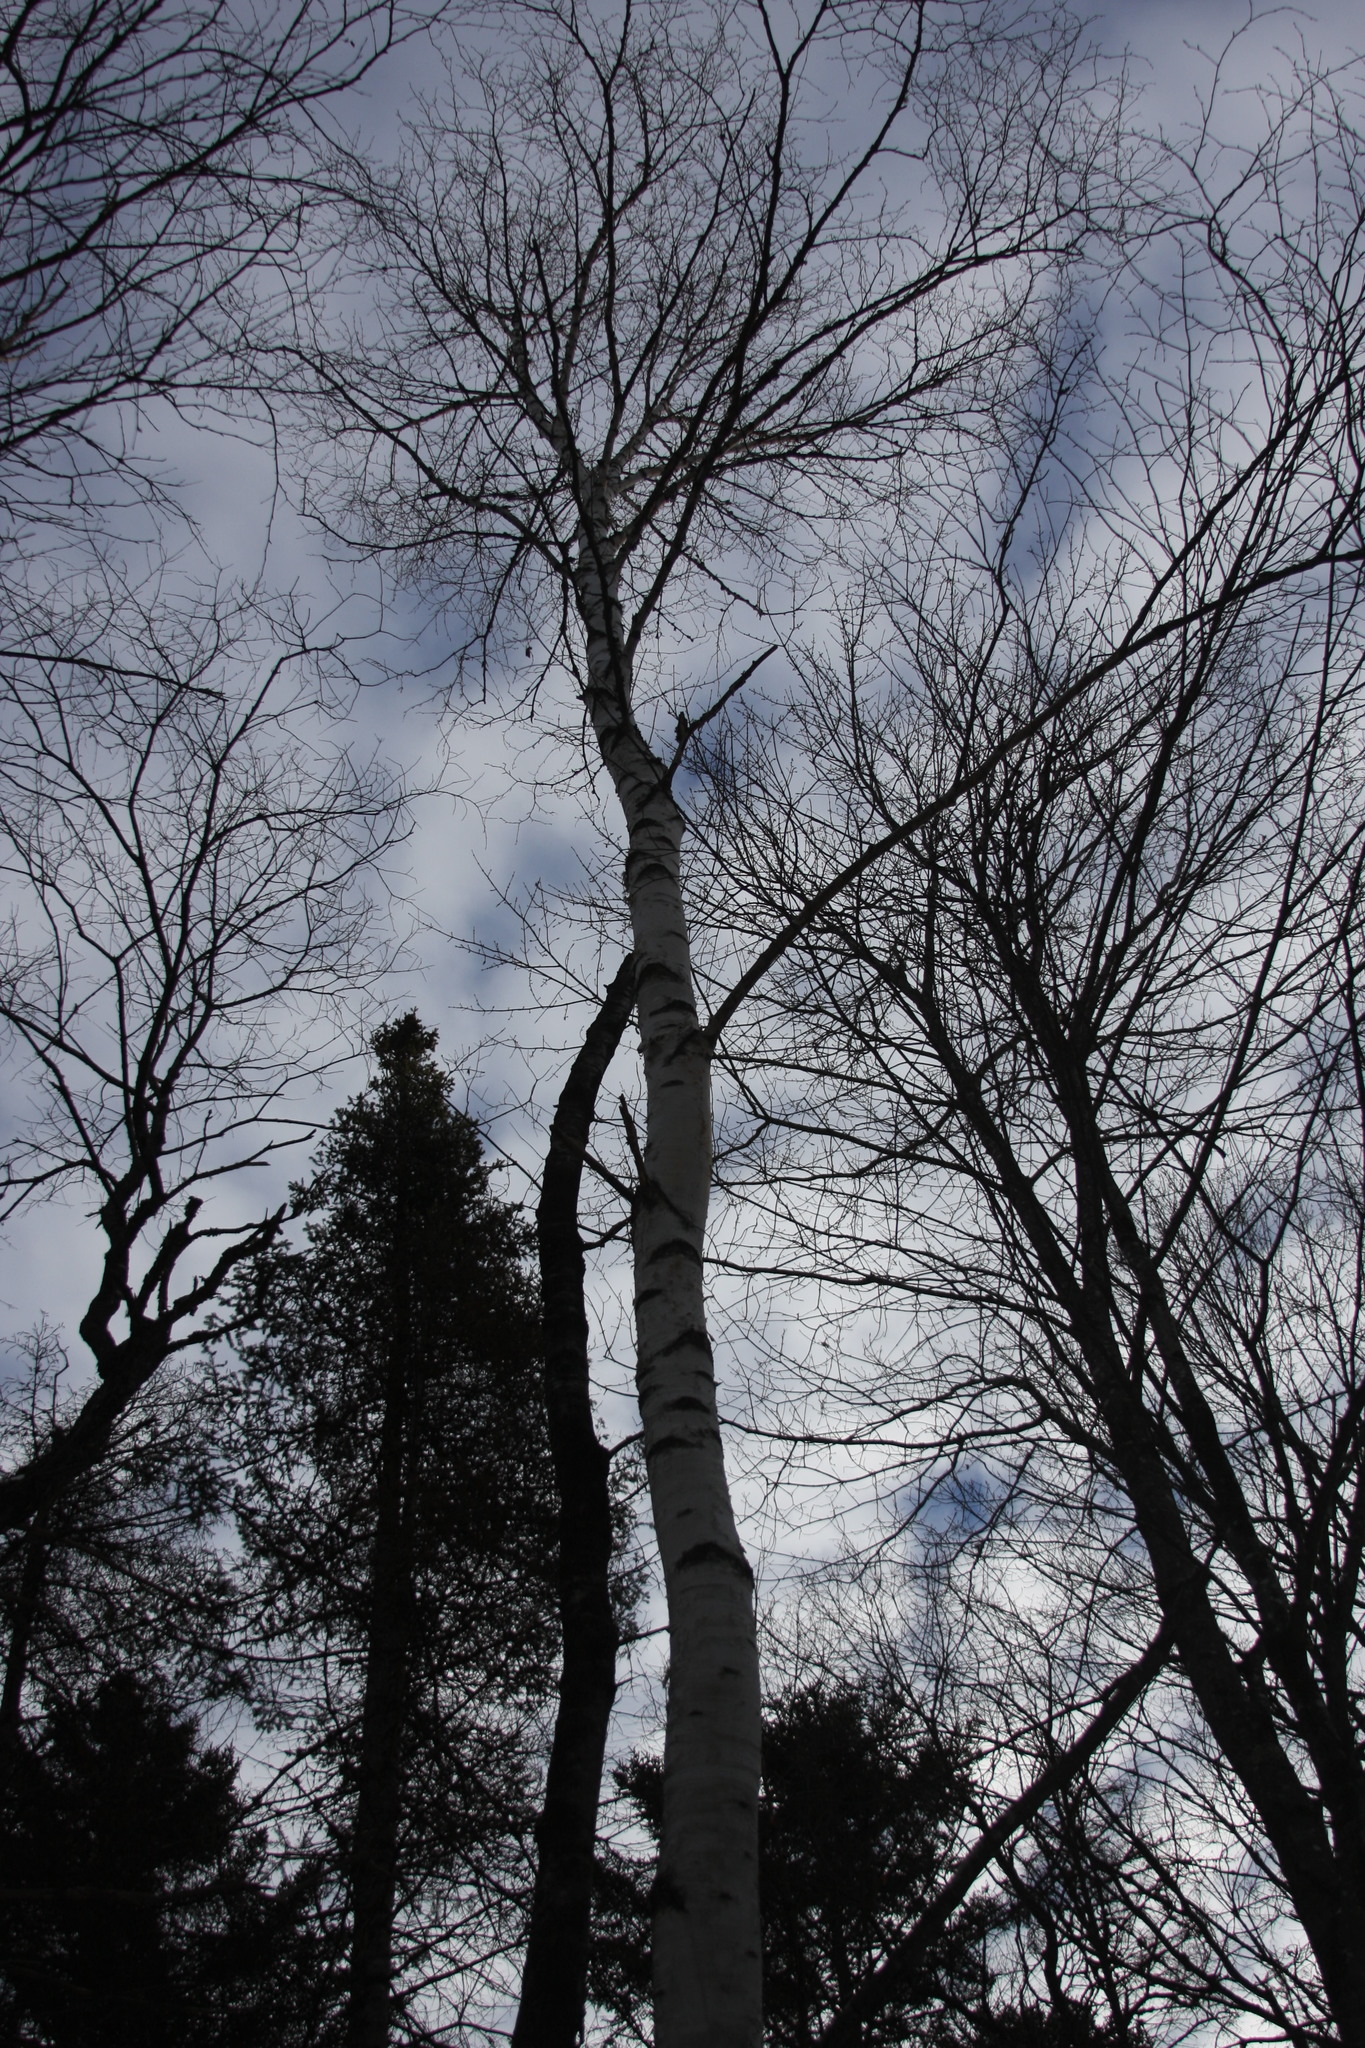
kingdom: Plantae
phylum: Tracheophyta
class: Magnoliopsida
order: Fagales
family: Betulaceae
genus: Betula
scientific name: Betula papyrifera
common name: Paper birch
